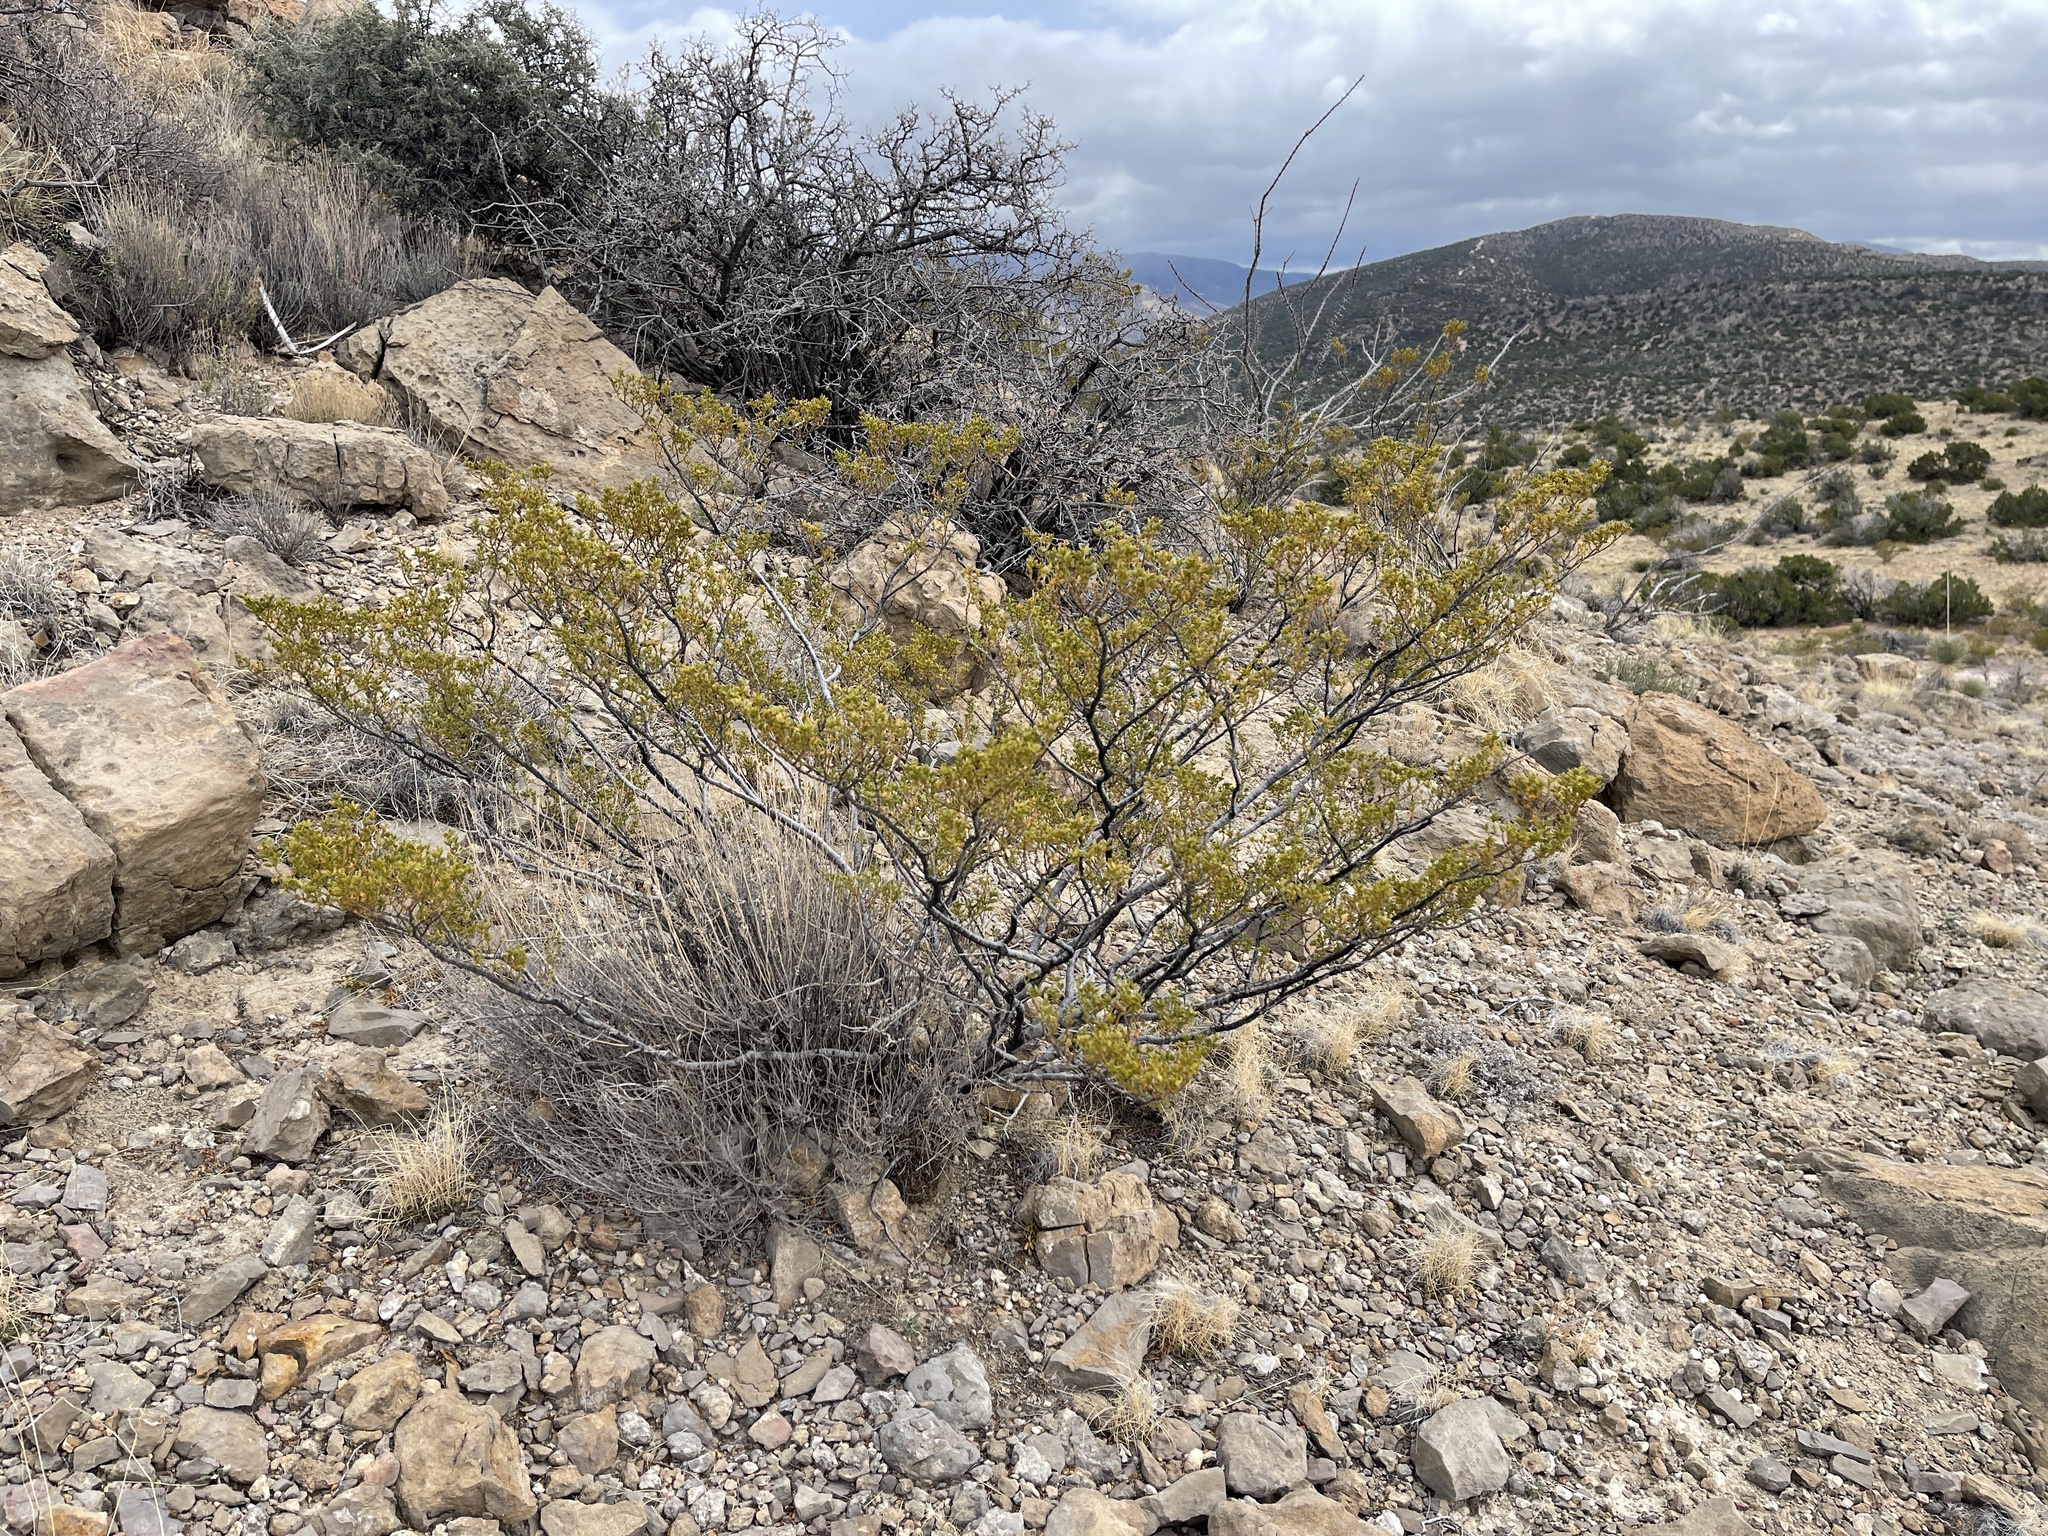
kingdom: Plantae
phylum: Tracheophyta
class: Magnoliopsida
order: Zygophyllales
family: Zygophyllaceae
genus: Larrea
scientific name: Larrea tridentata
